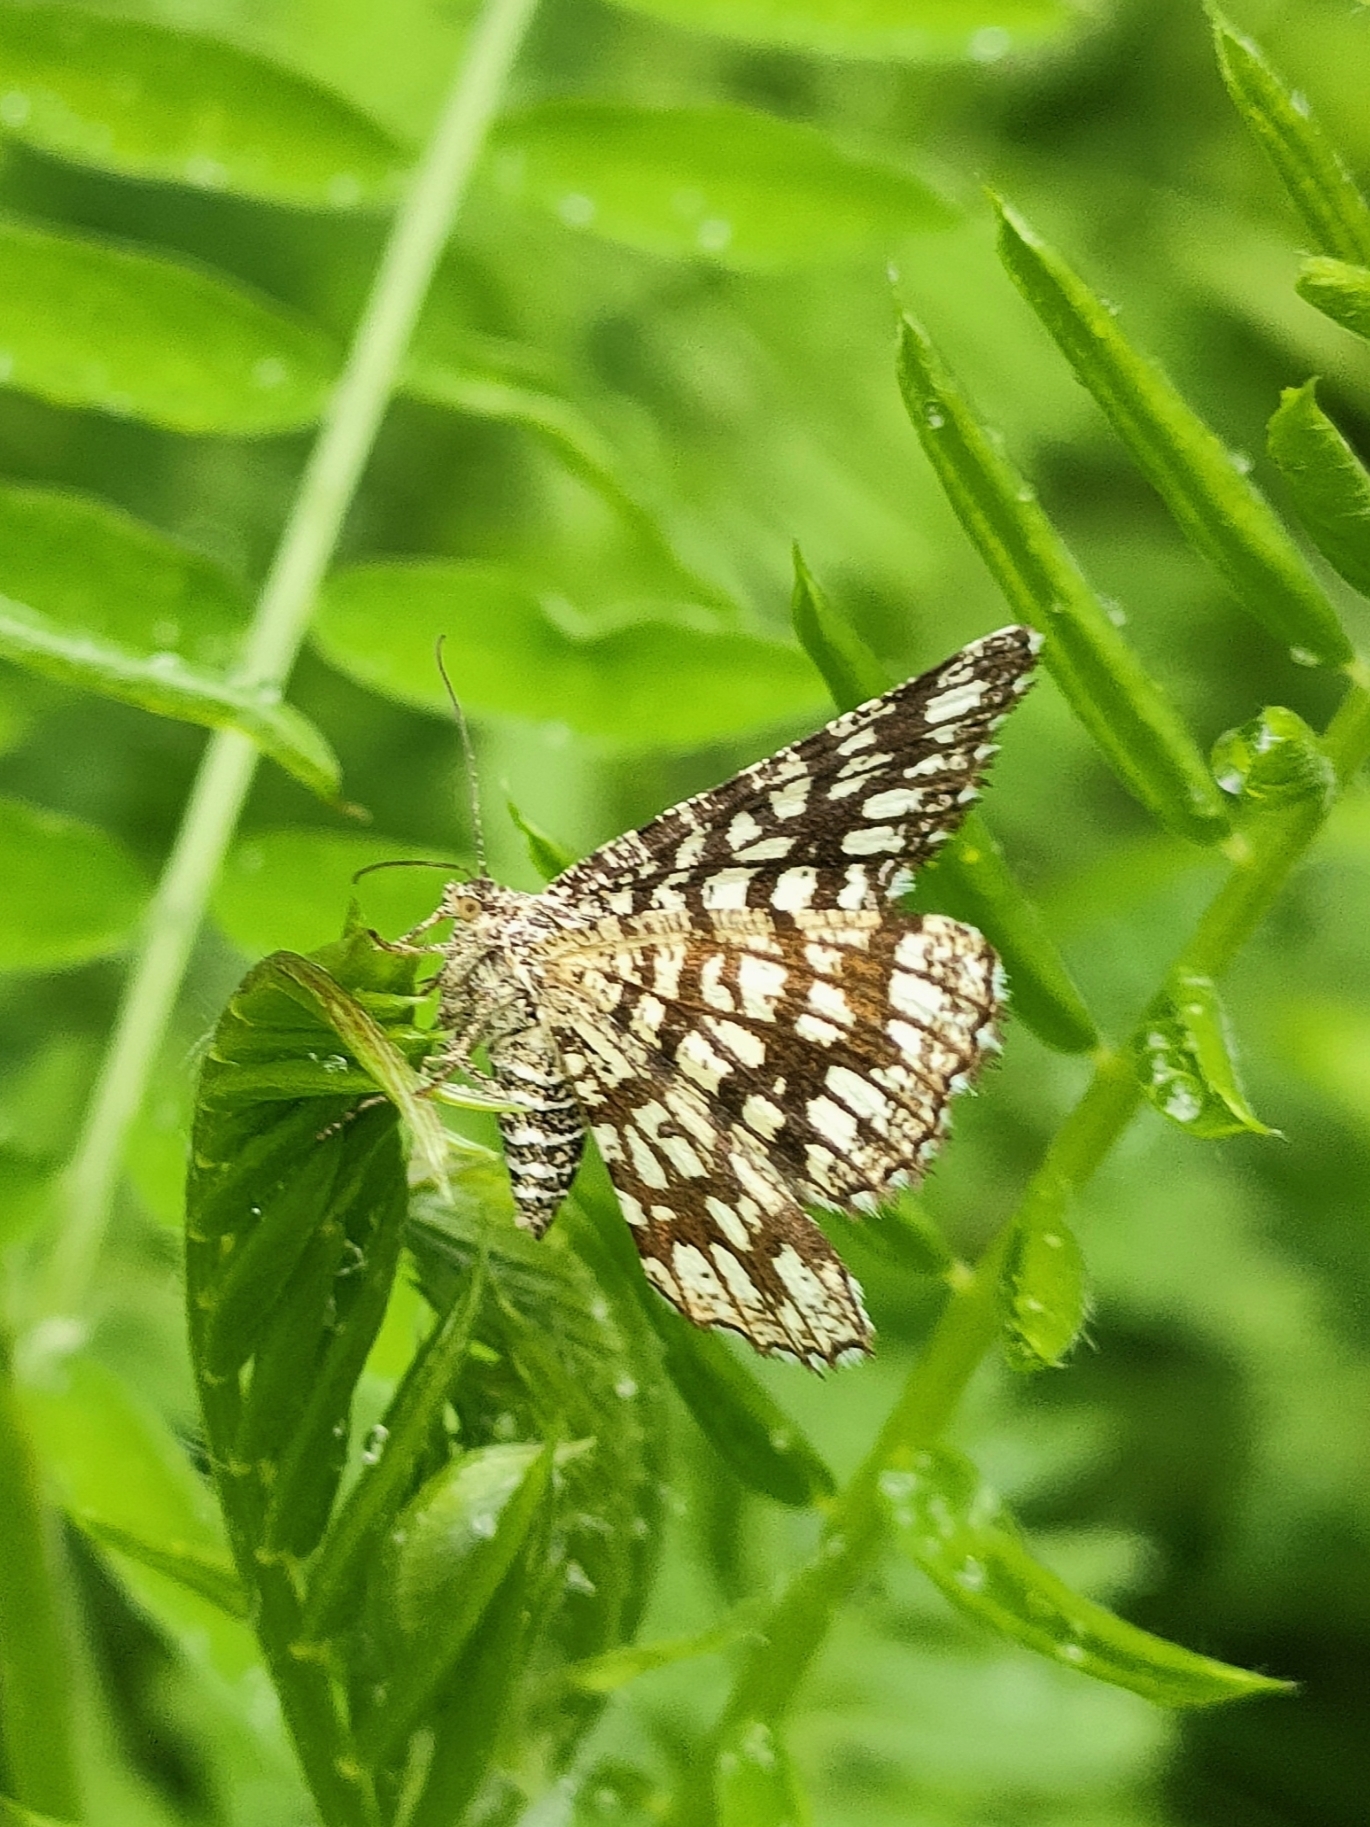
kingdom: Animalia
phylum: Arthropoda
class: Insecta
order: Lepidoptera
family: Geometridae
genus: Chiasmia
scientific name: Chiasmia clathrata
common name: Latticed heath
